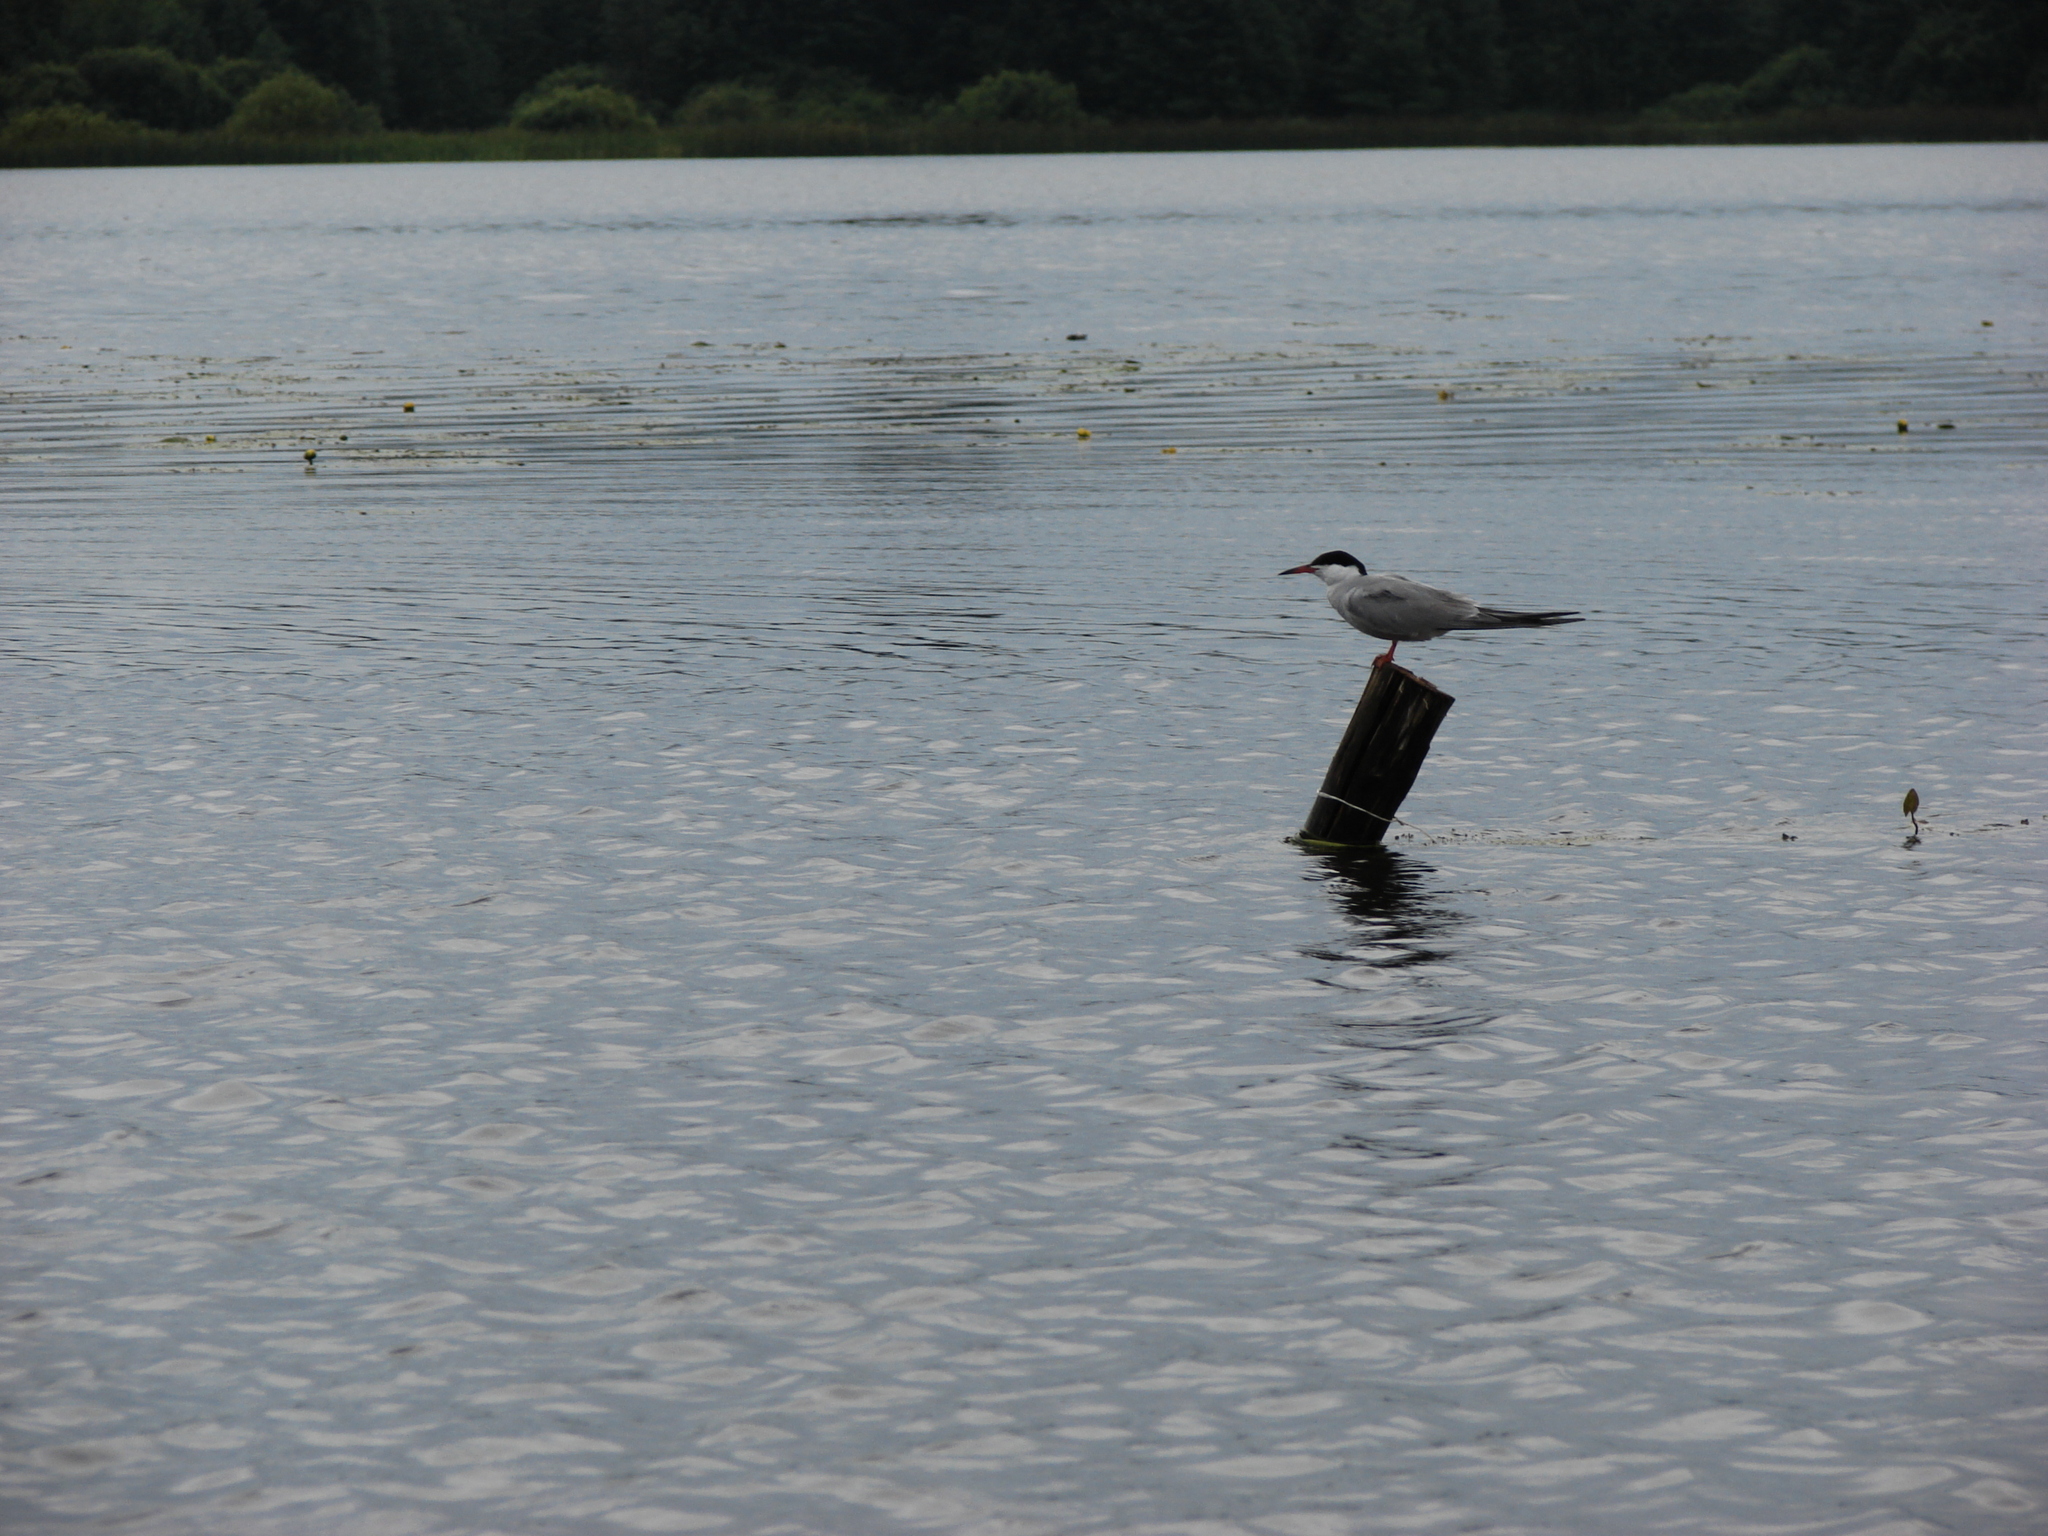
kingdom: Animalia
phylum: Chordata
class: Aves
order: Charadriiformes
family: Laridae
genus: Sterna
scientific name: Sterna hirundo
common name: Common tern
